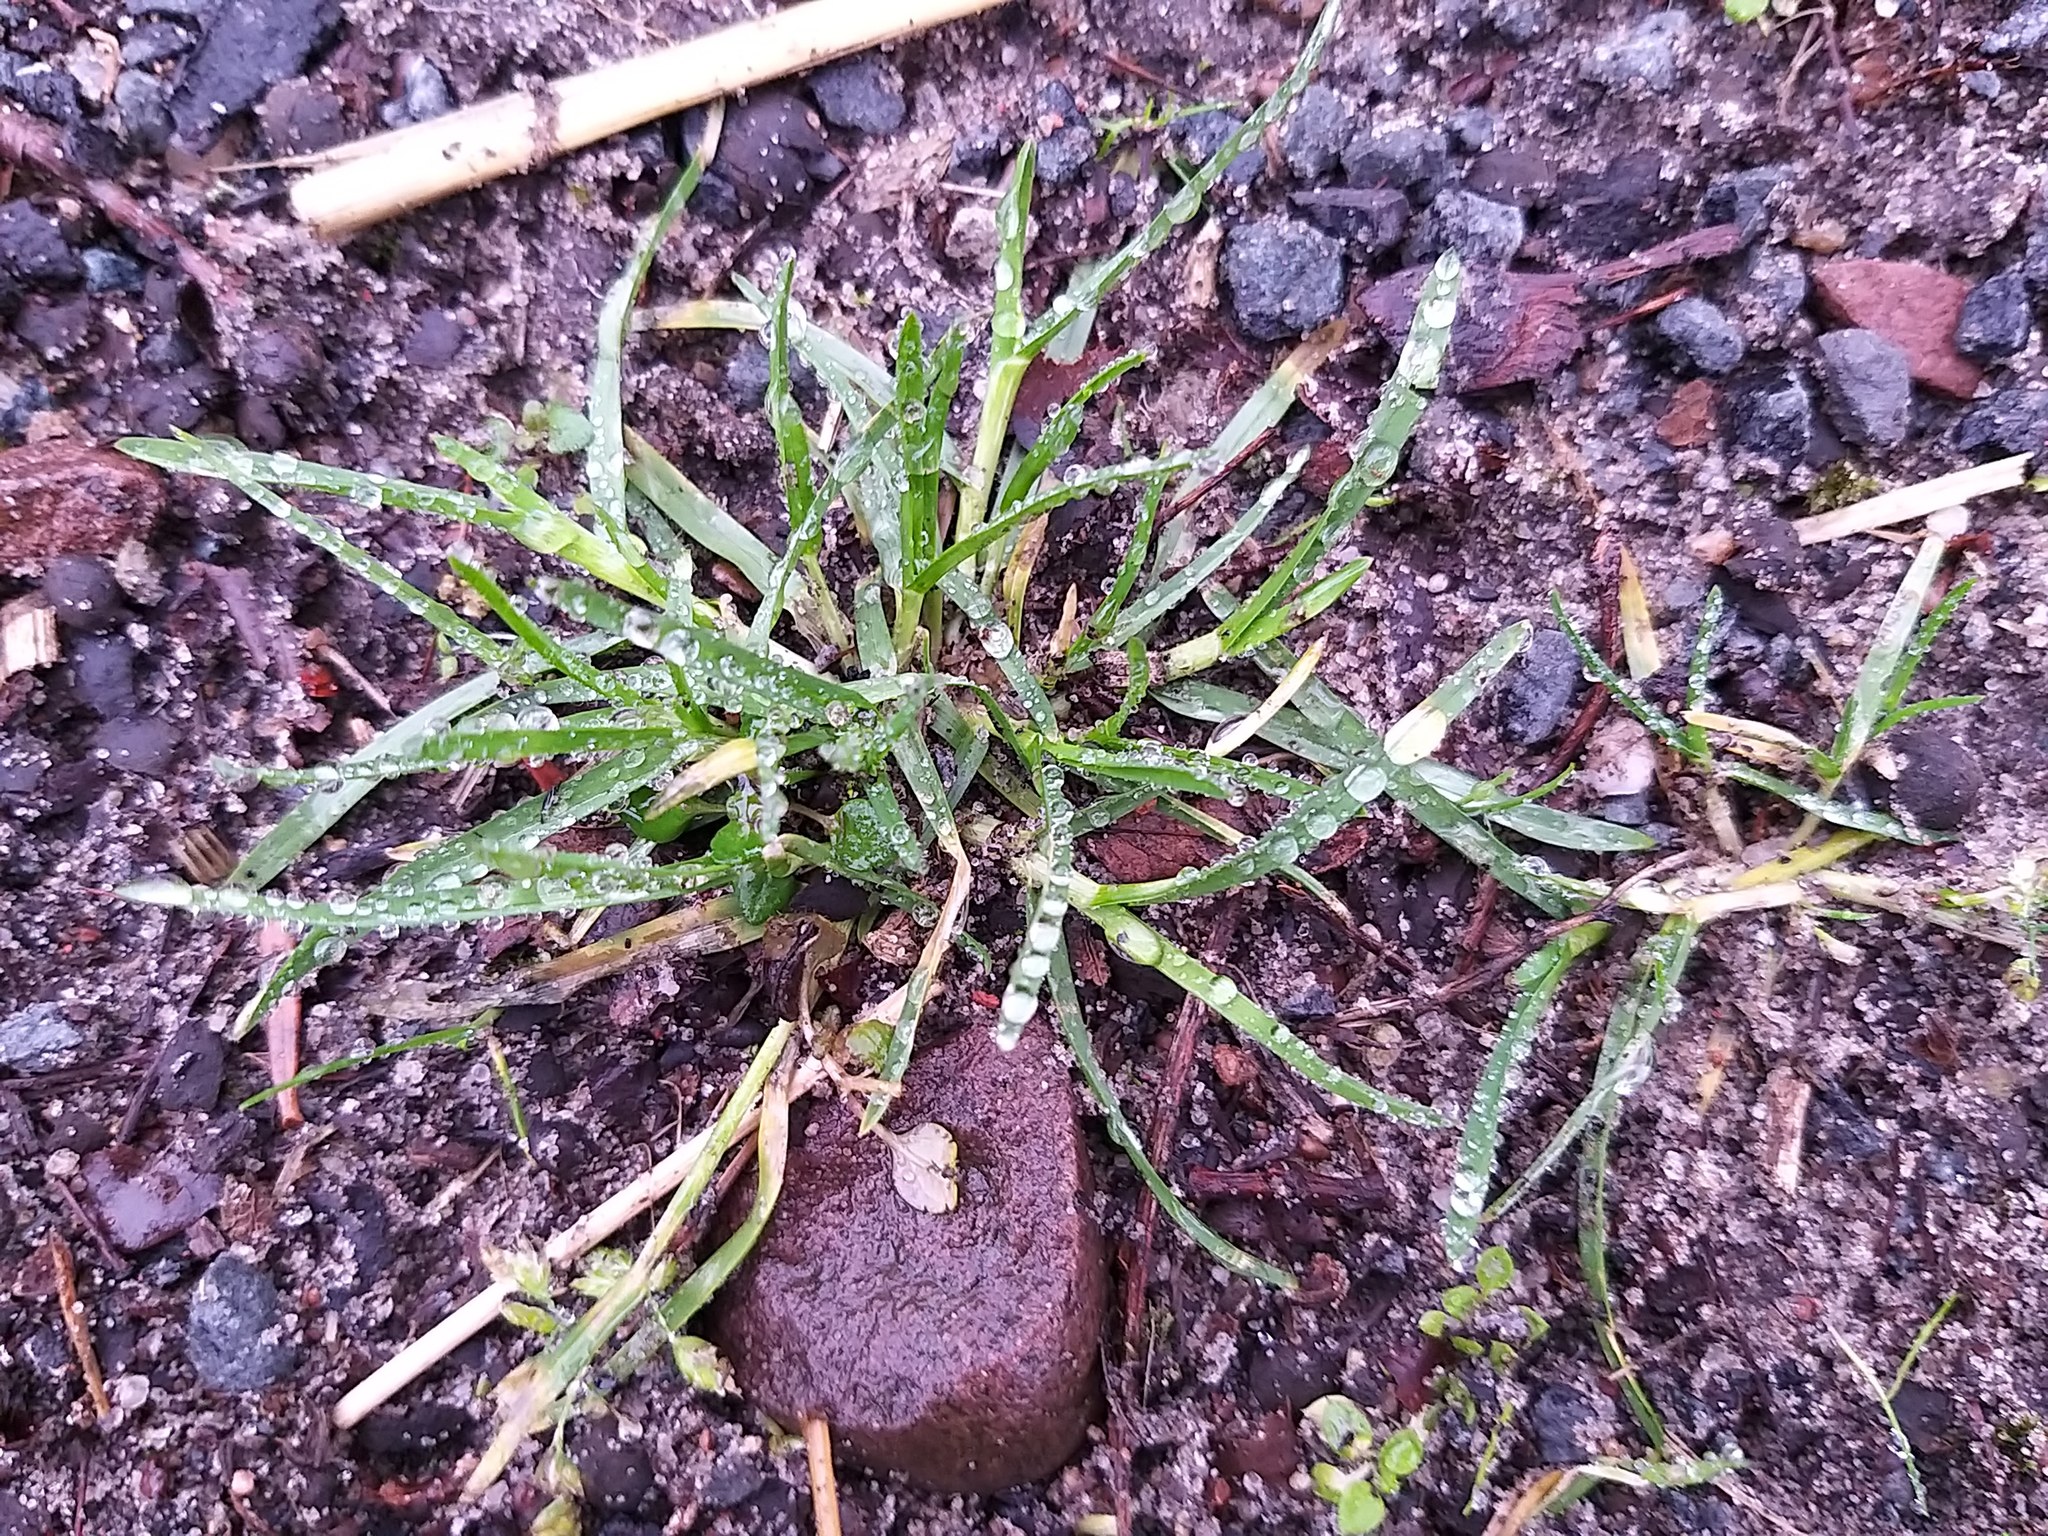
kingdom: Plantae
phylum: Tracheophyta
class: Liliopsida
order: Poales
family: Poaceae
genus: Poa
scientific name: Poa annua
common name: Annual bluegrass
